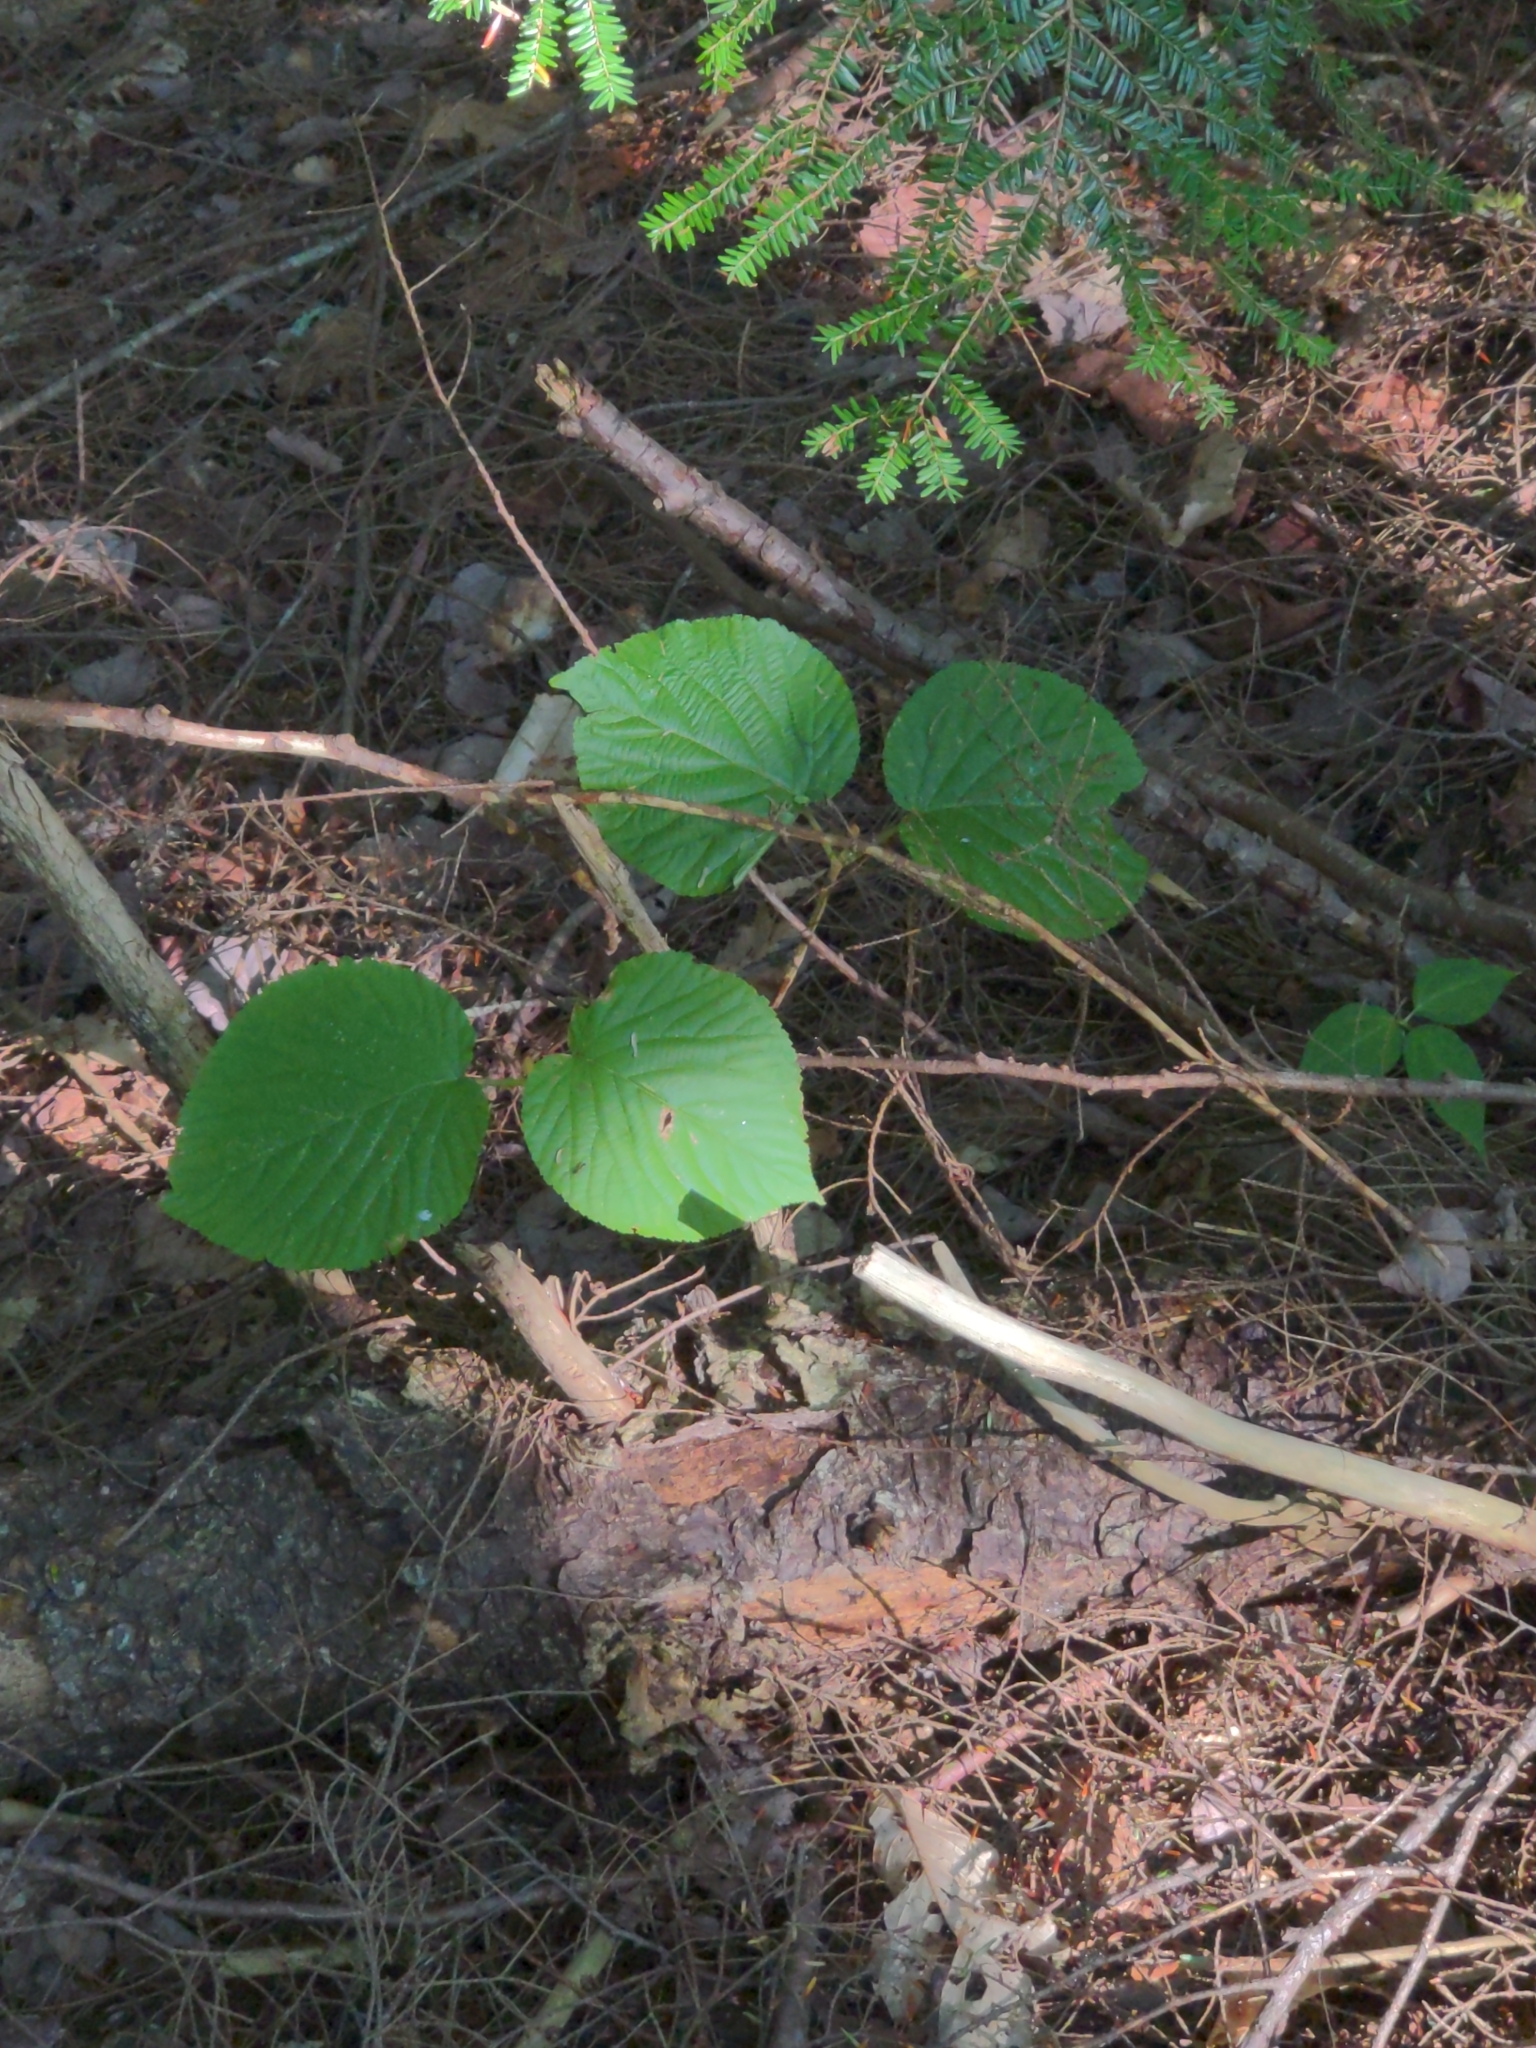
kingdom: Plantae
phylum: Tracheophyta
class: Magnoliopsida
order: Dipsacales
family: Viburnaceae
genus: Viburnum
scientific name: Viburnum lantanoides
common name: Hobblebush
